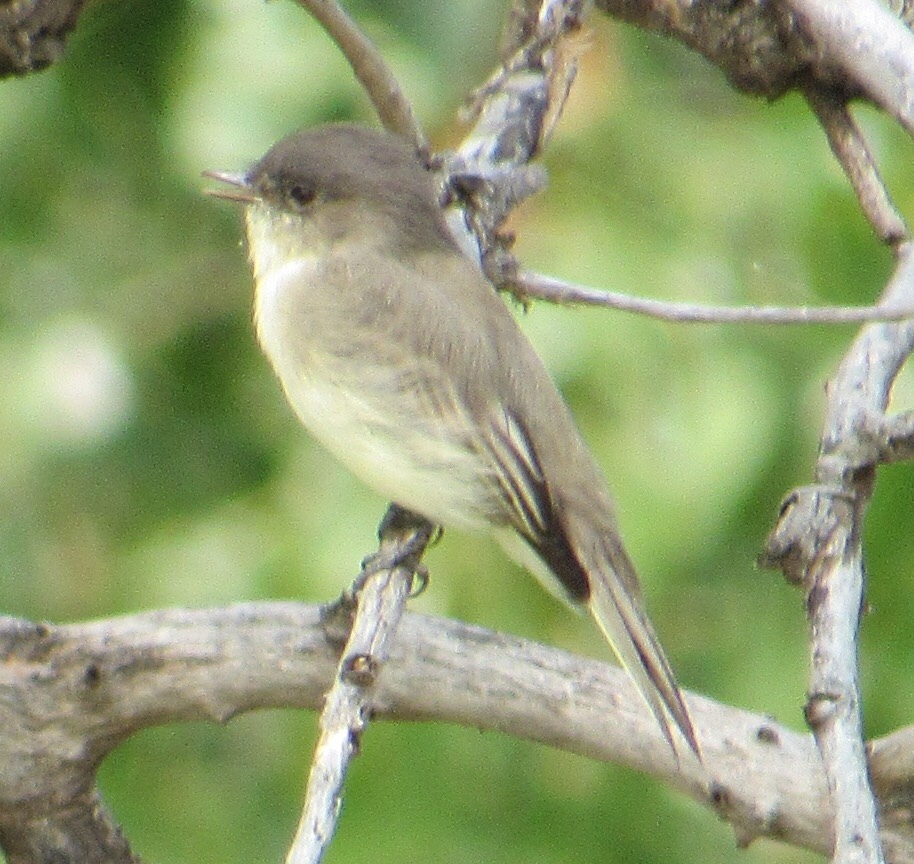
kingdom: Animalia
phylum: Chordata
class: Aves
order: Passeriformes
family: Tyrannidae
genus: Sayornis
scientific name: Sayornis phoebe
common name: Eastern phoebe
